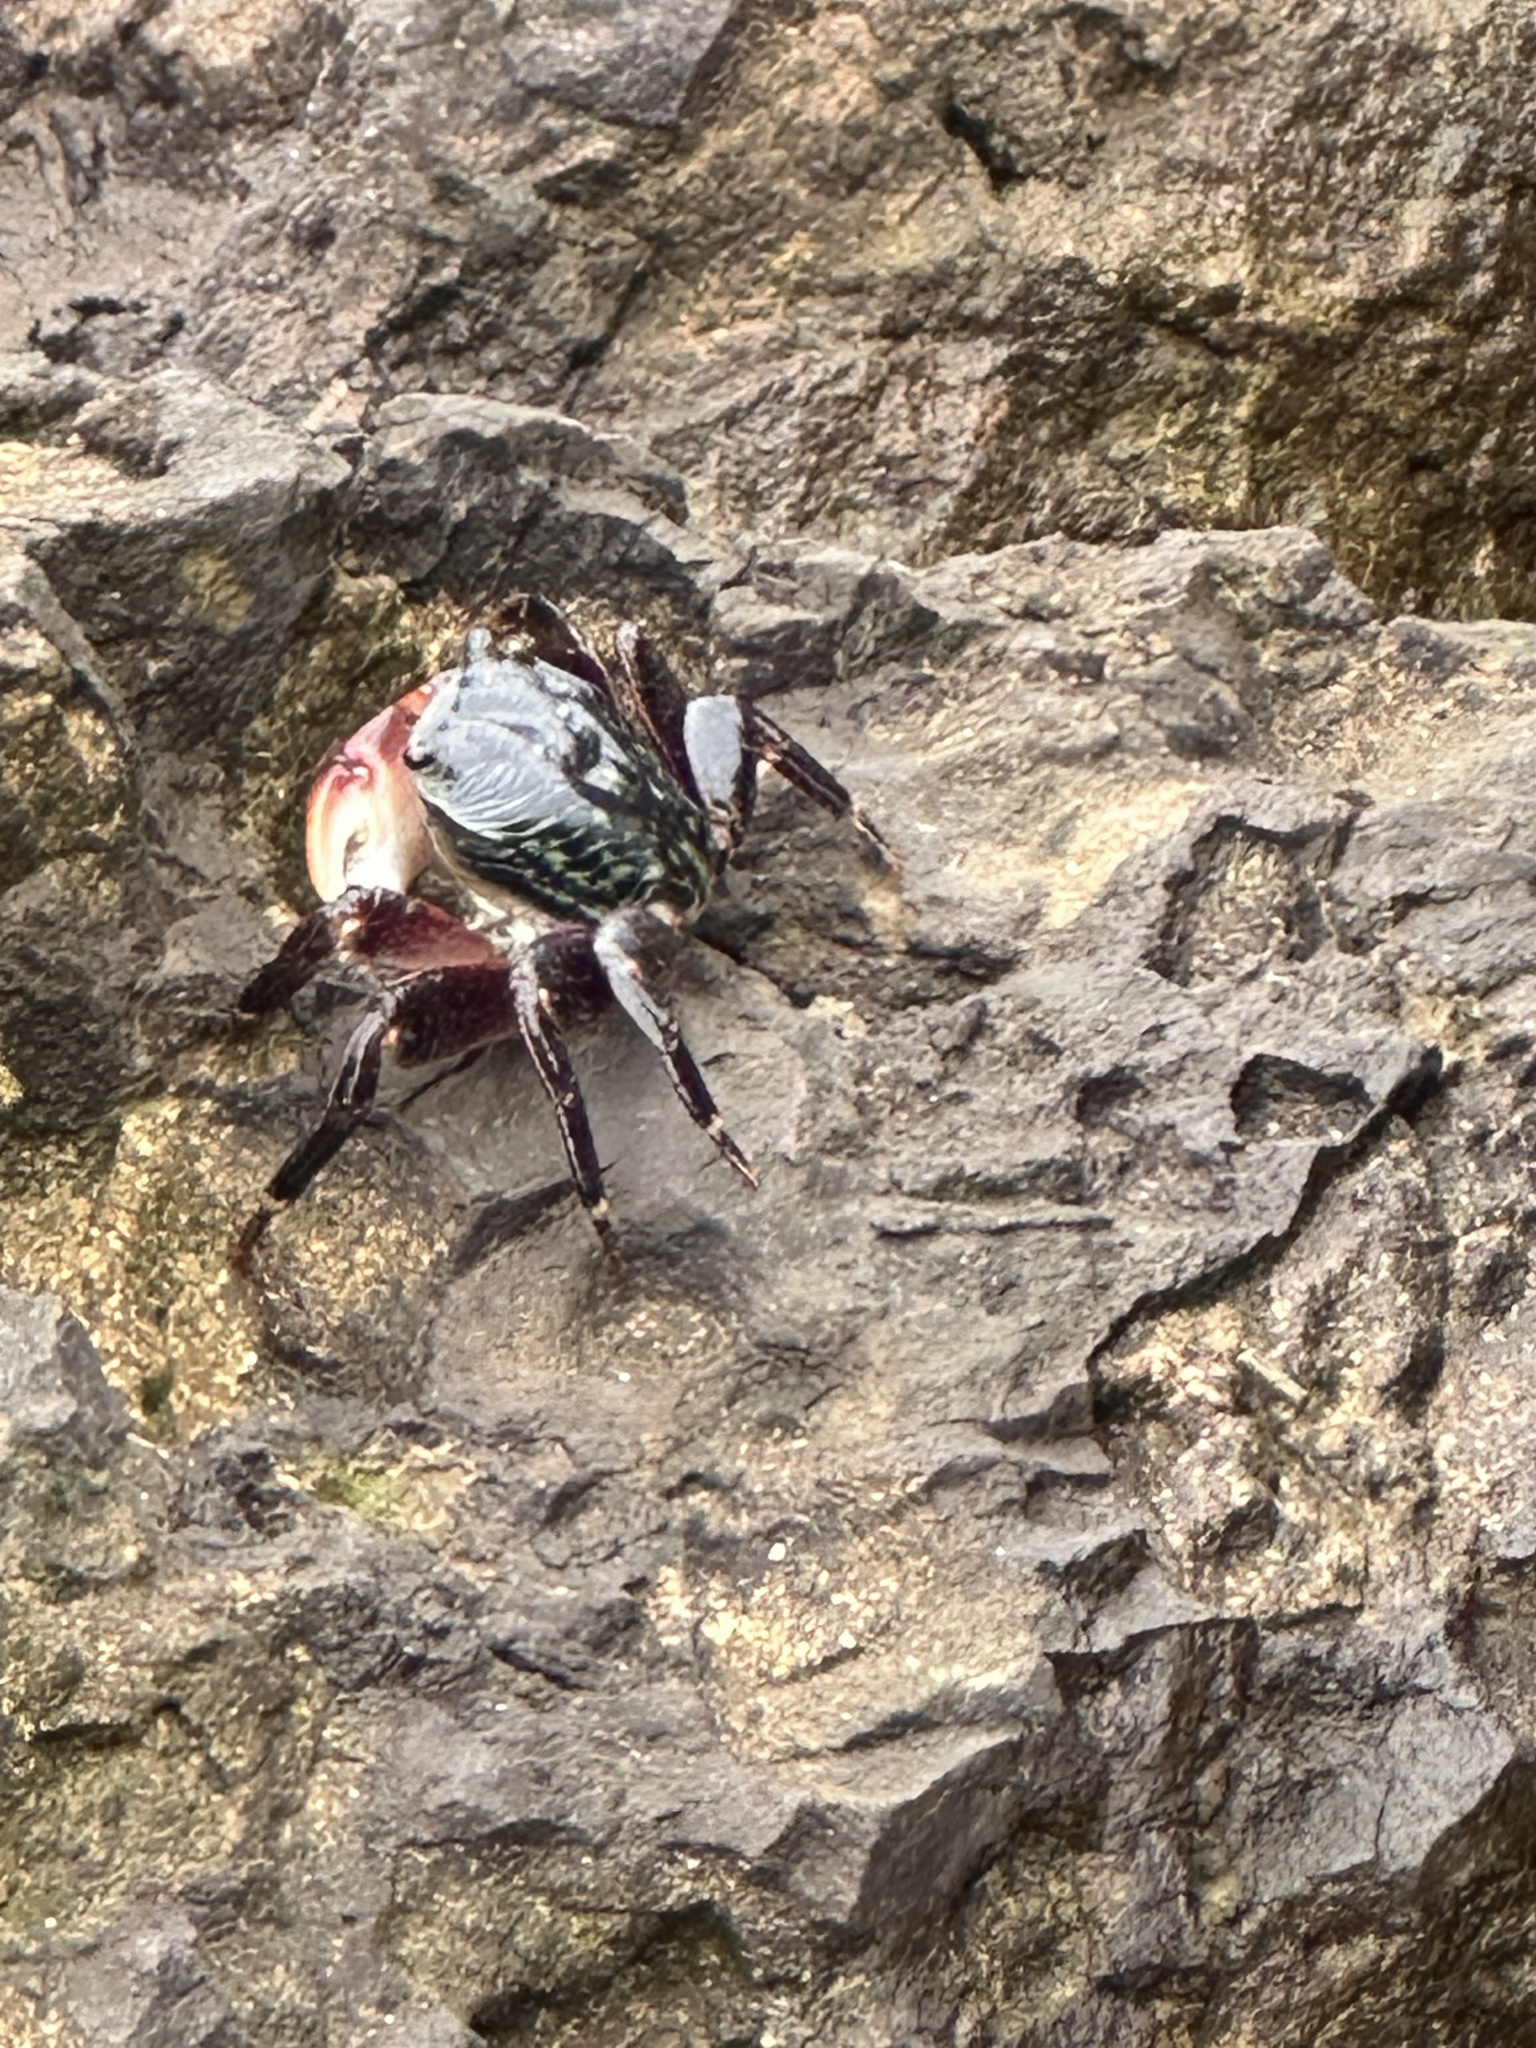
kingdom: Animalia
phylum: Arthropoda
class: Malacostraca
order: Decapoda
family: Grapsidae
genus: Pachygrapsus
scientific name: Pachygrapsus crassipes
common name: Striped shore crab
